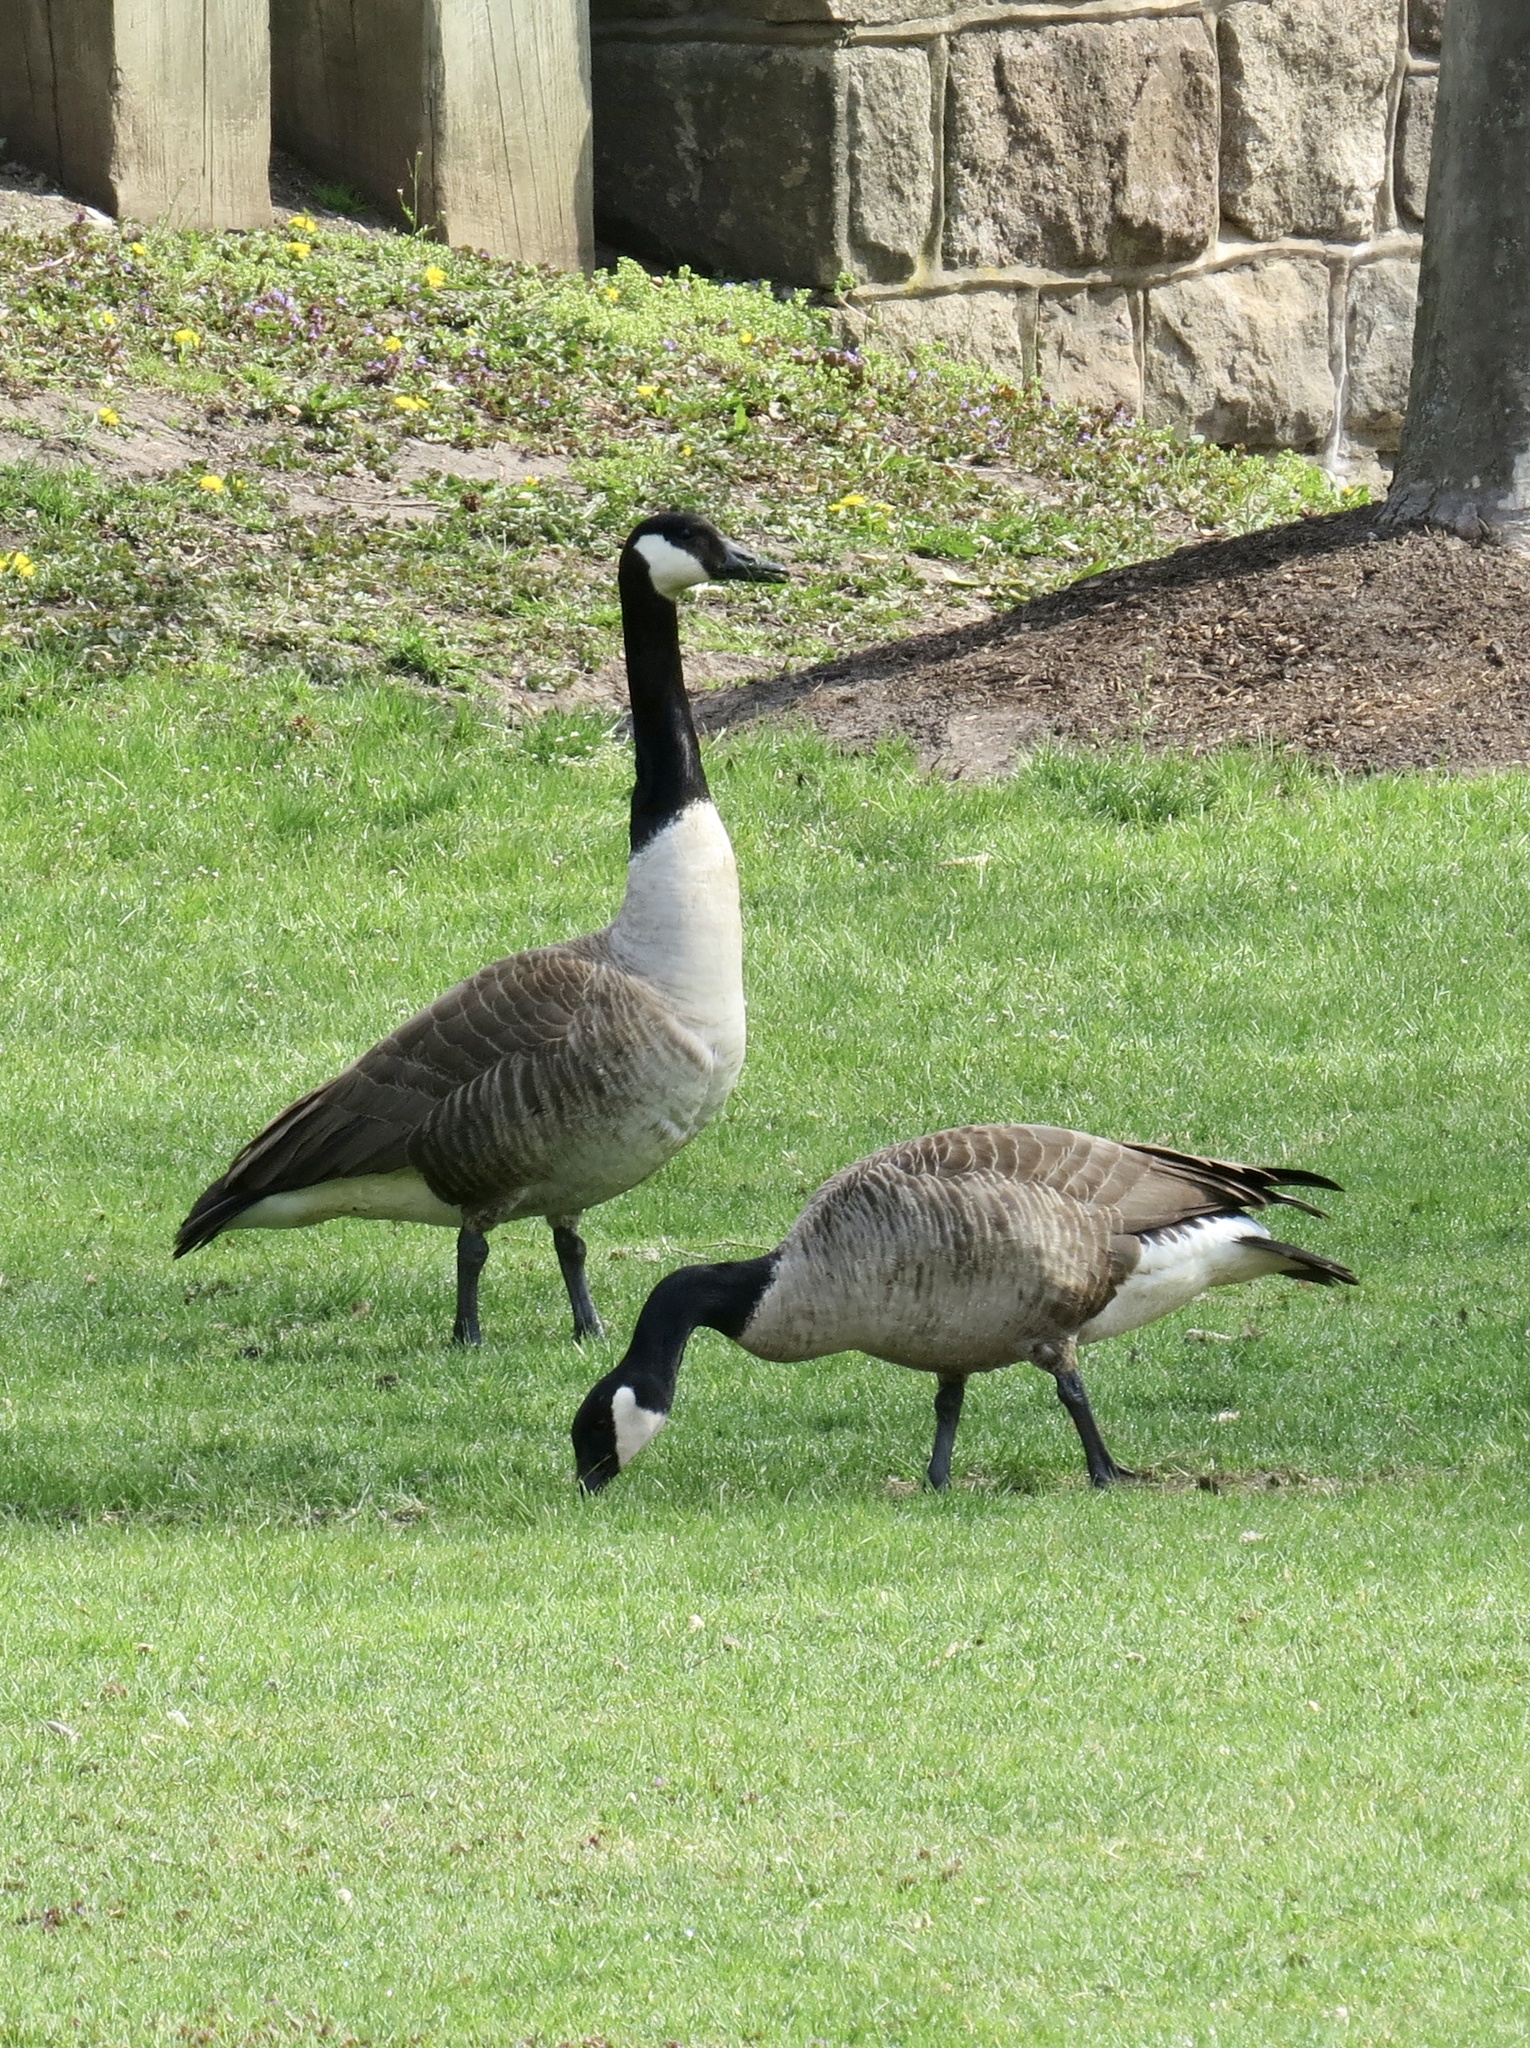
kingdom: Animalia
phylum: Chordata
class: Aves
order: Anseriformes
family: Anatidae
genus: Branta
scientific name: Branta canadensis
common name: Canada goose
